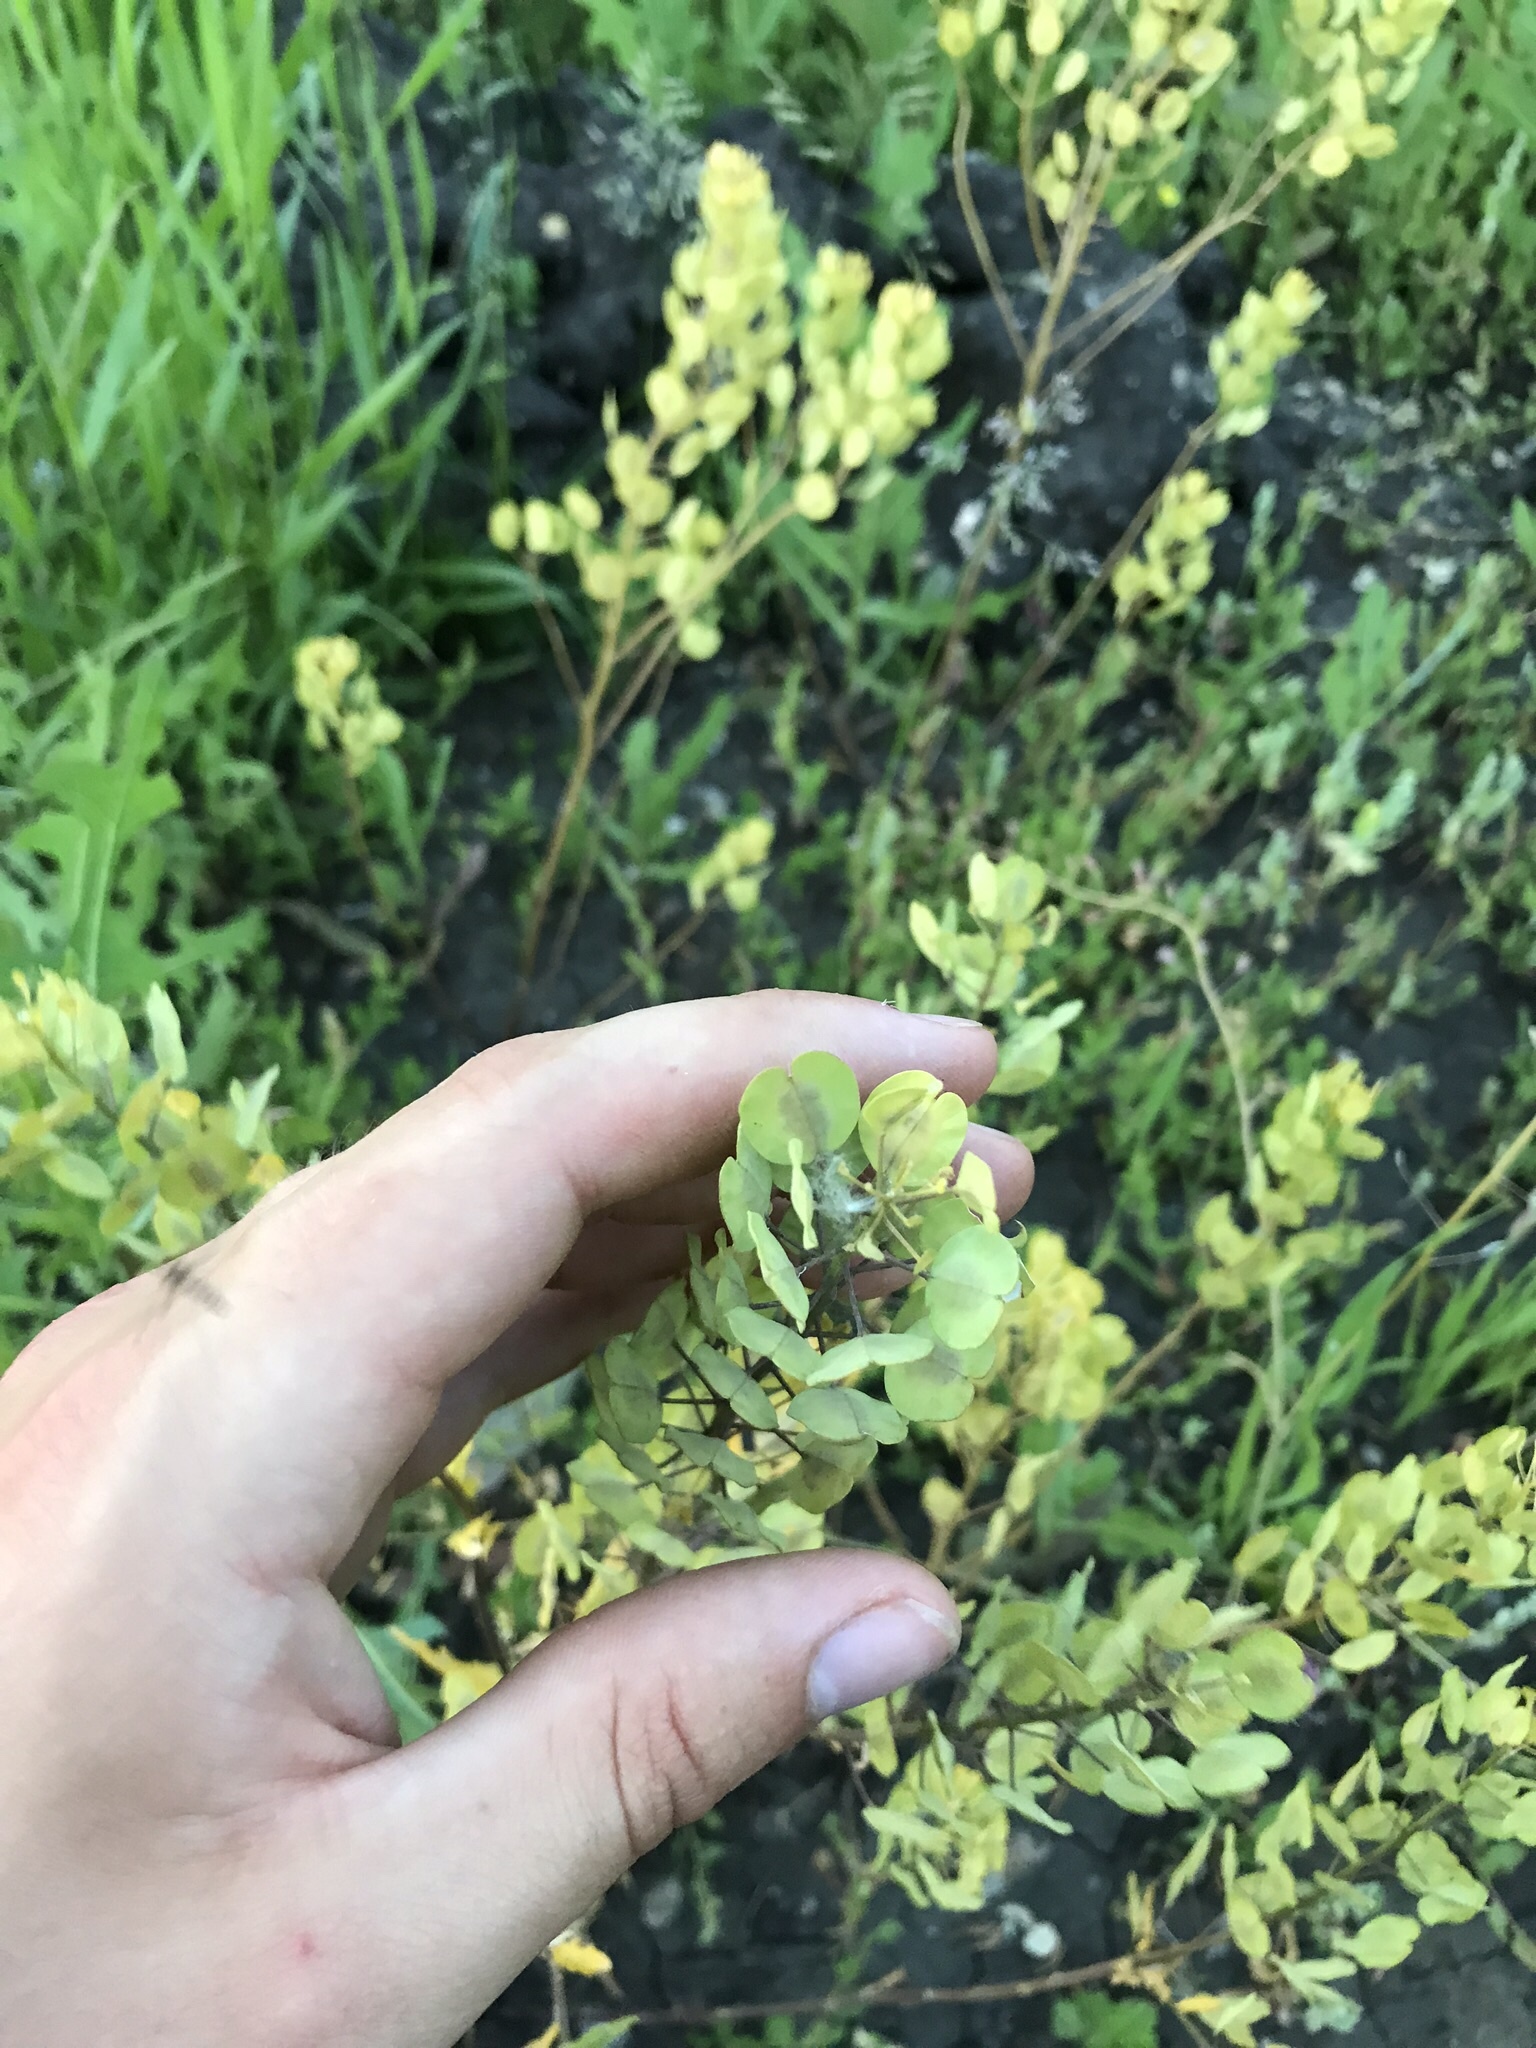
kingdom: Plantae
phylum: Tracheophyta
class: Magnoliopsida
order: Brassicales
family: Brassicaceae
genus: Thlaspi
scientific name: Thlaspi arvense
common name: Field pennycress
